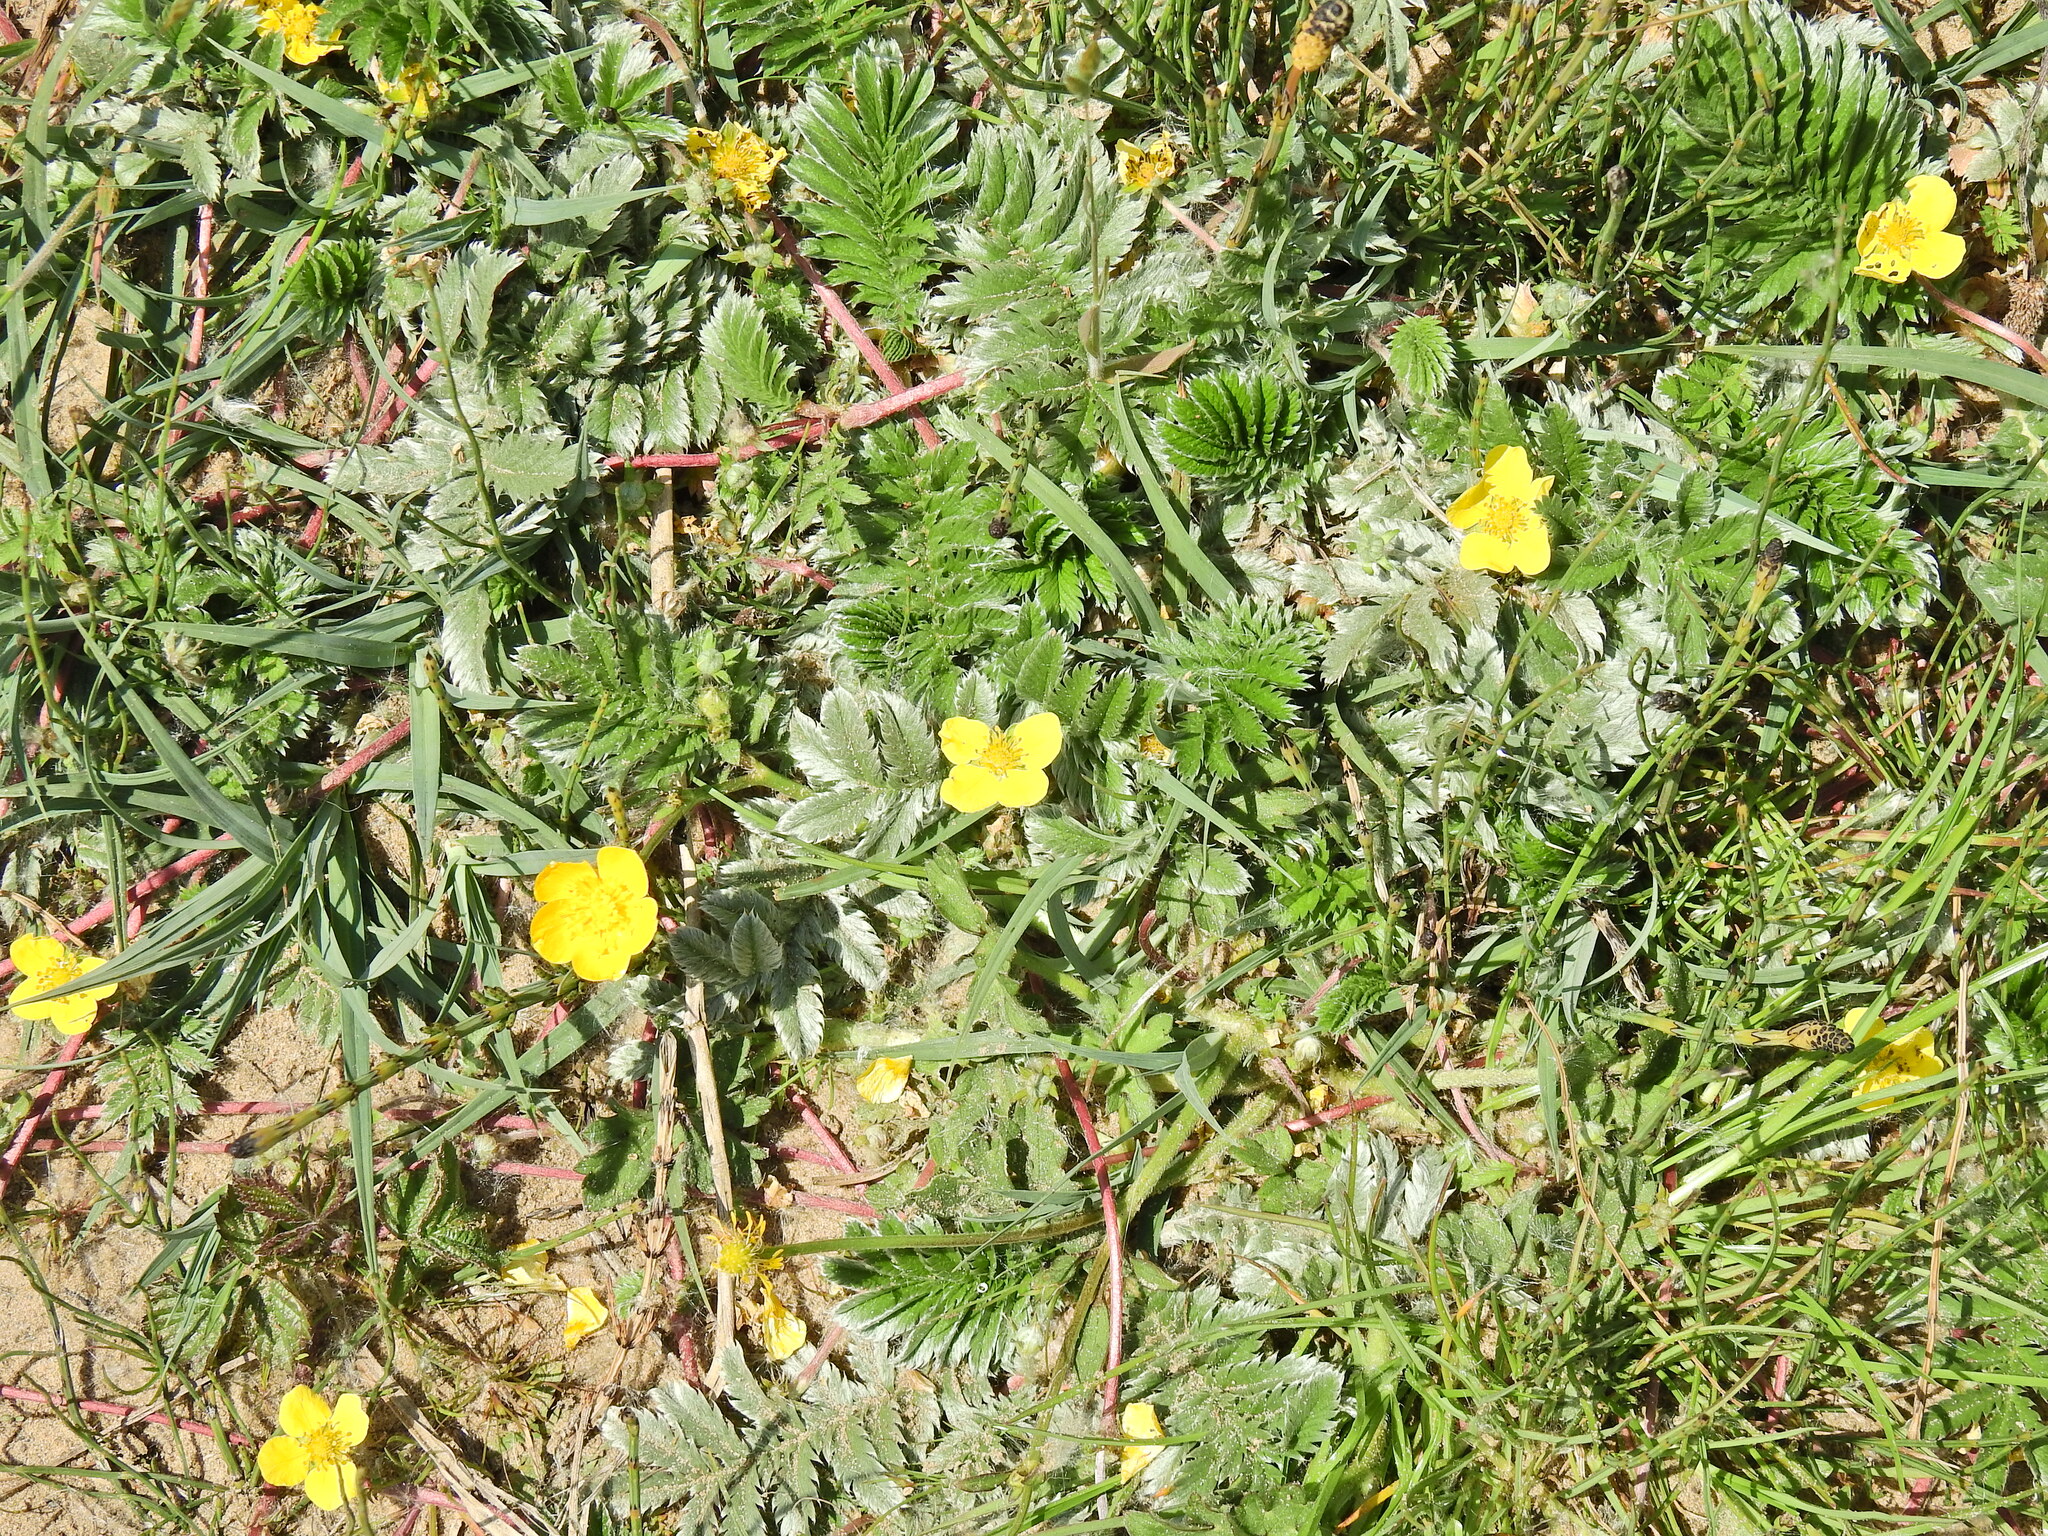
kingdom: Plantae
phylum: Tracheophyta
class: Magnoliopsida
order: Rosales
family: Rosaceae
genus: Argentina
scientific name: Argentina anserina
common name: Common silverweed
